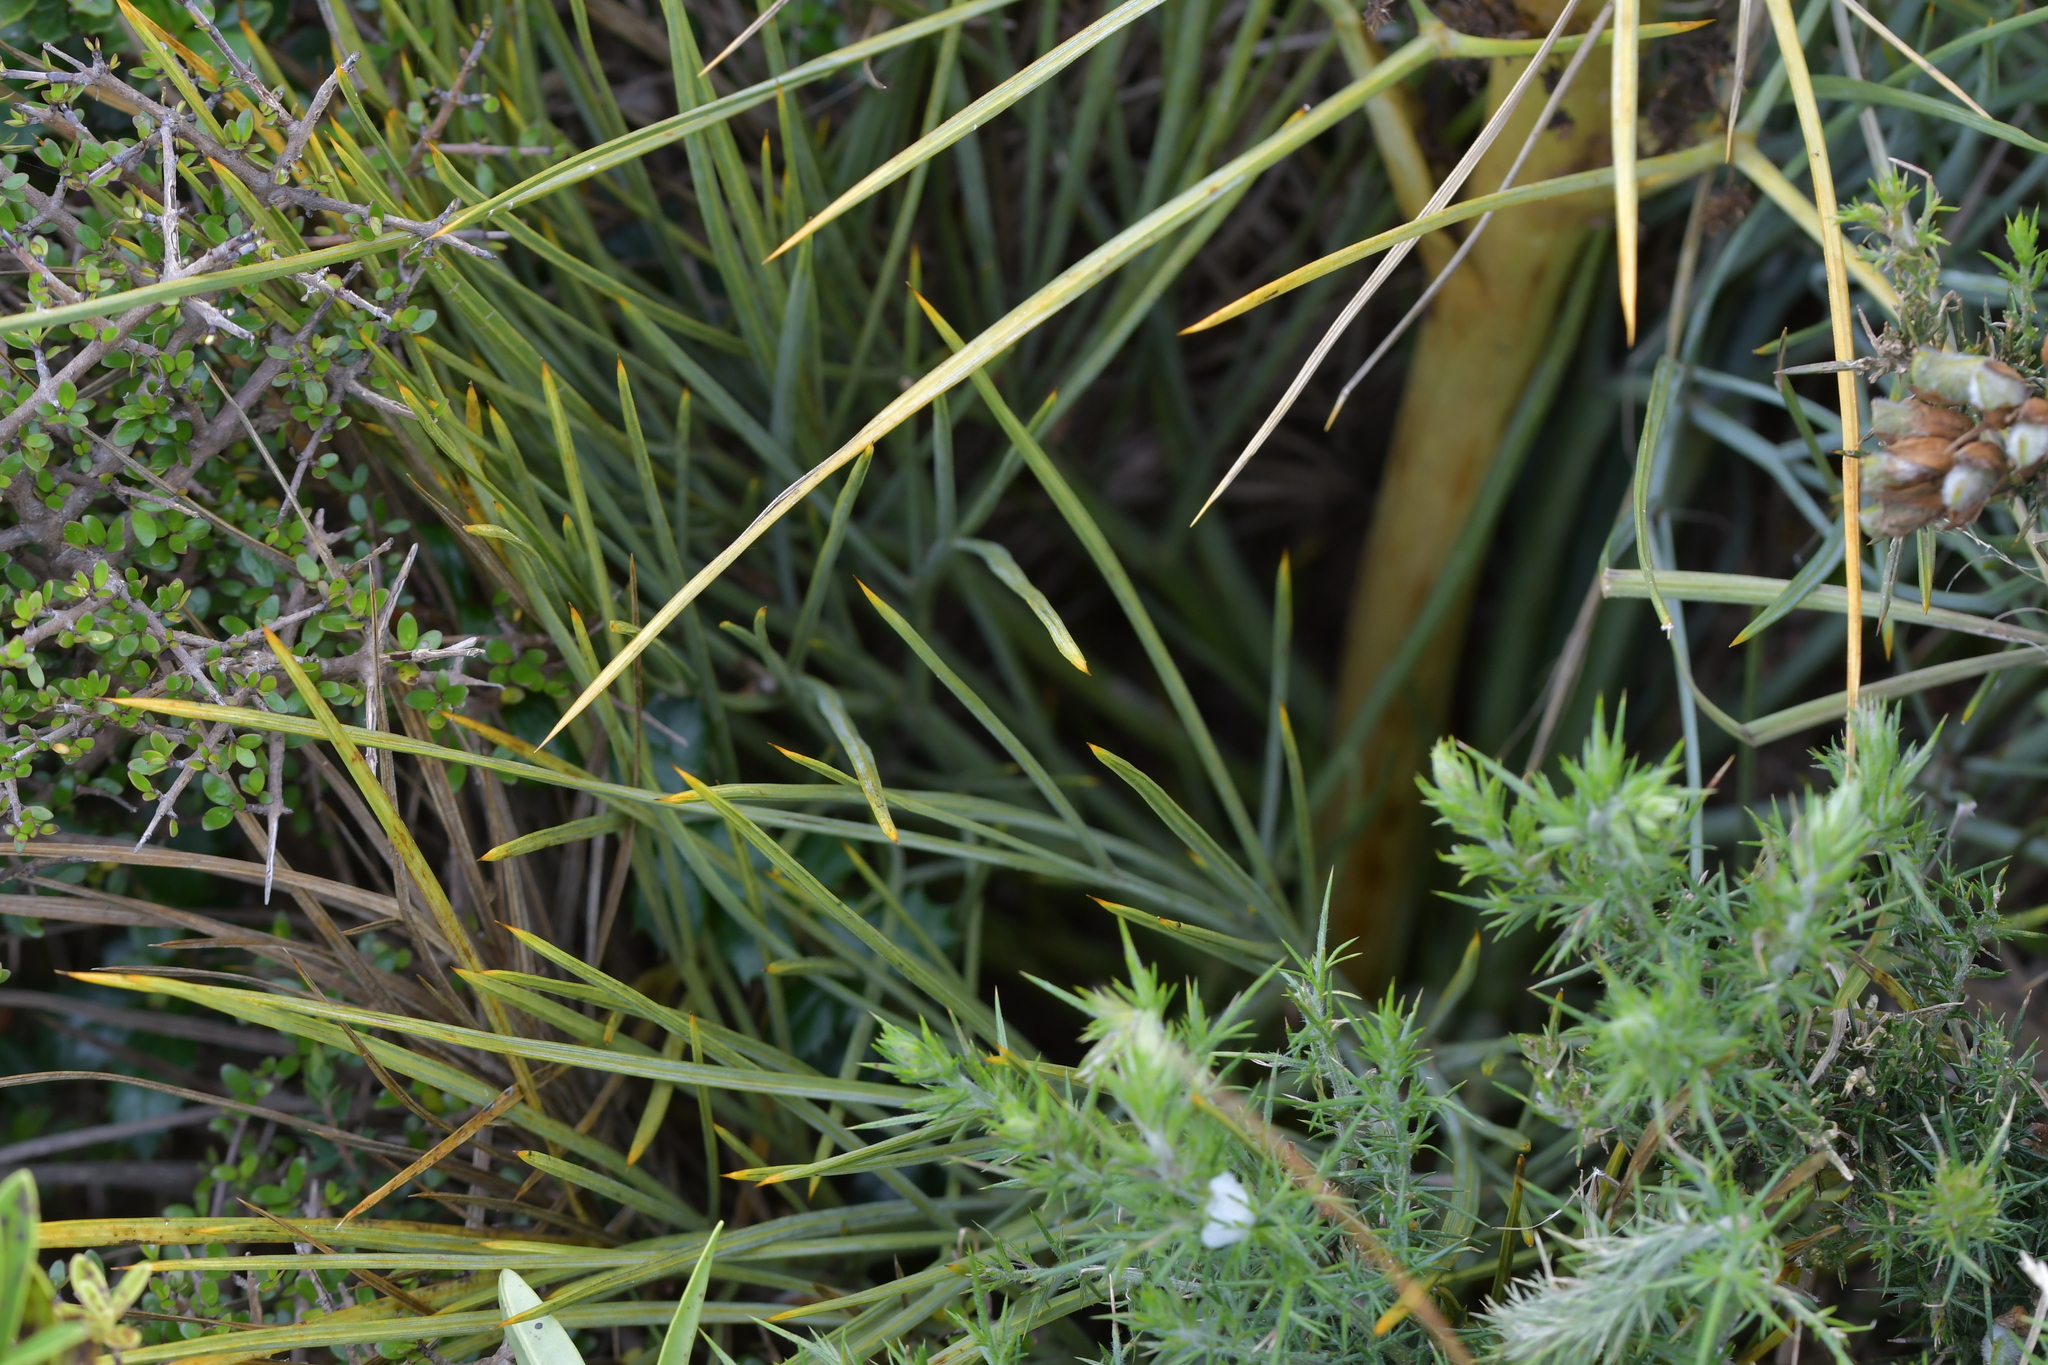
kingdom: Plantae
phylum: Tracheophyta
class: Magnoliopsida
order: Apiales
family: Apiaceae
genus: Aciphylla
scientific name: Aciphylla squarrosa
